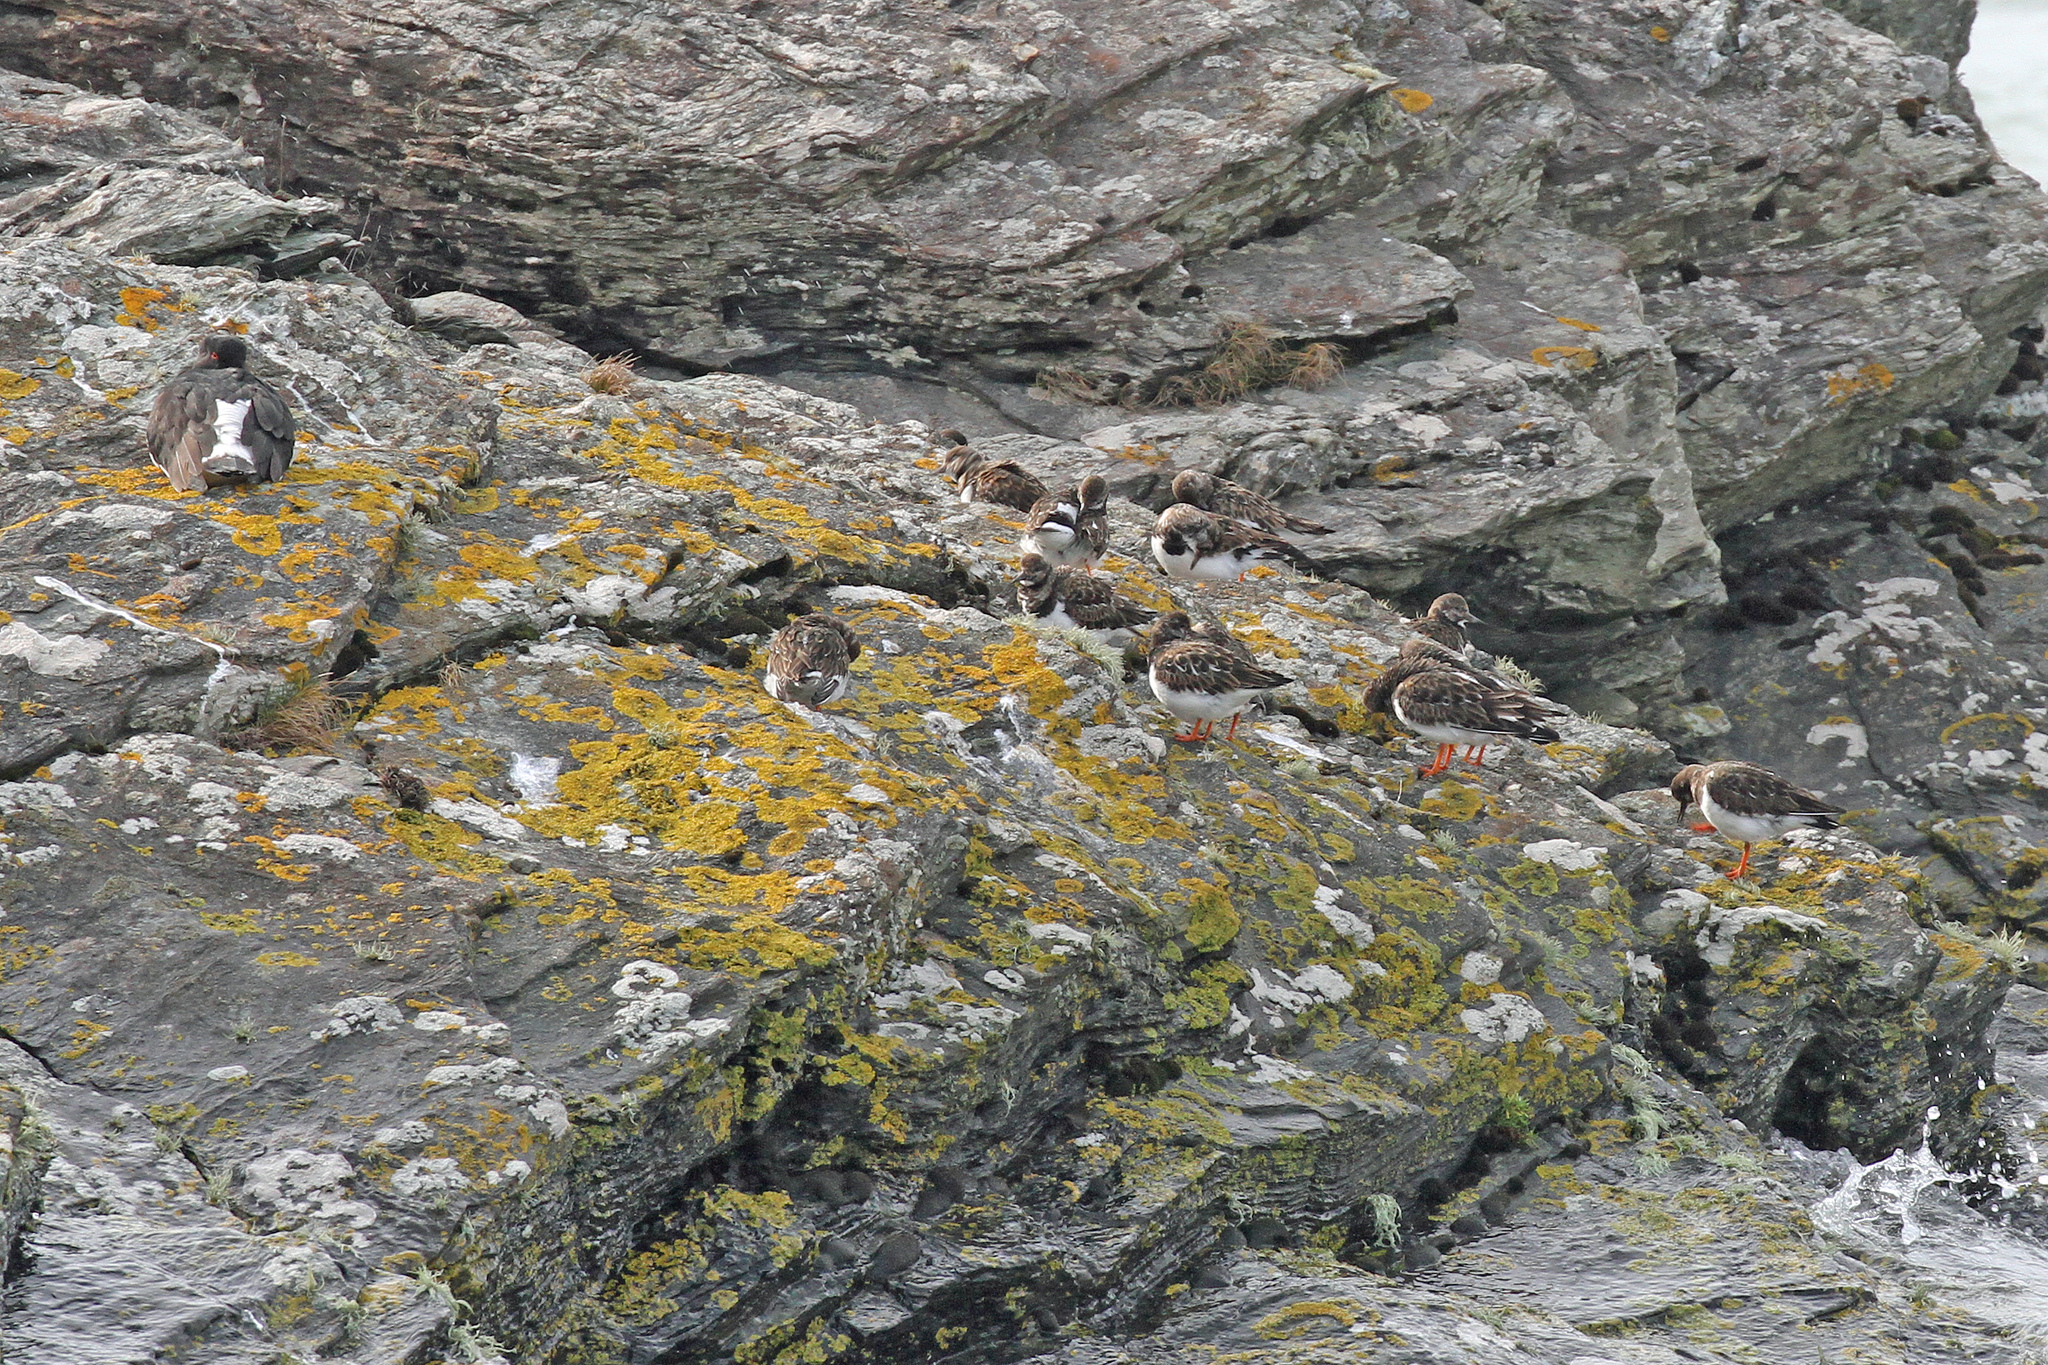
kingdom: Animalia
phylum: Chordata
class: Aves
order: Charadriiformes
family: Scolopacidae
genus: Arenaria
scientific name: Arenaria interpres
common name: Ruddy turnstone
